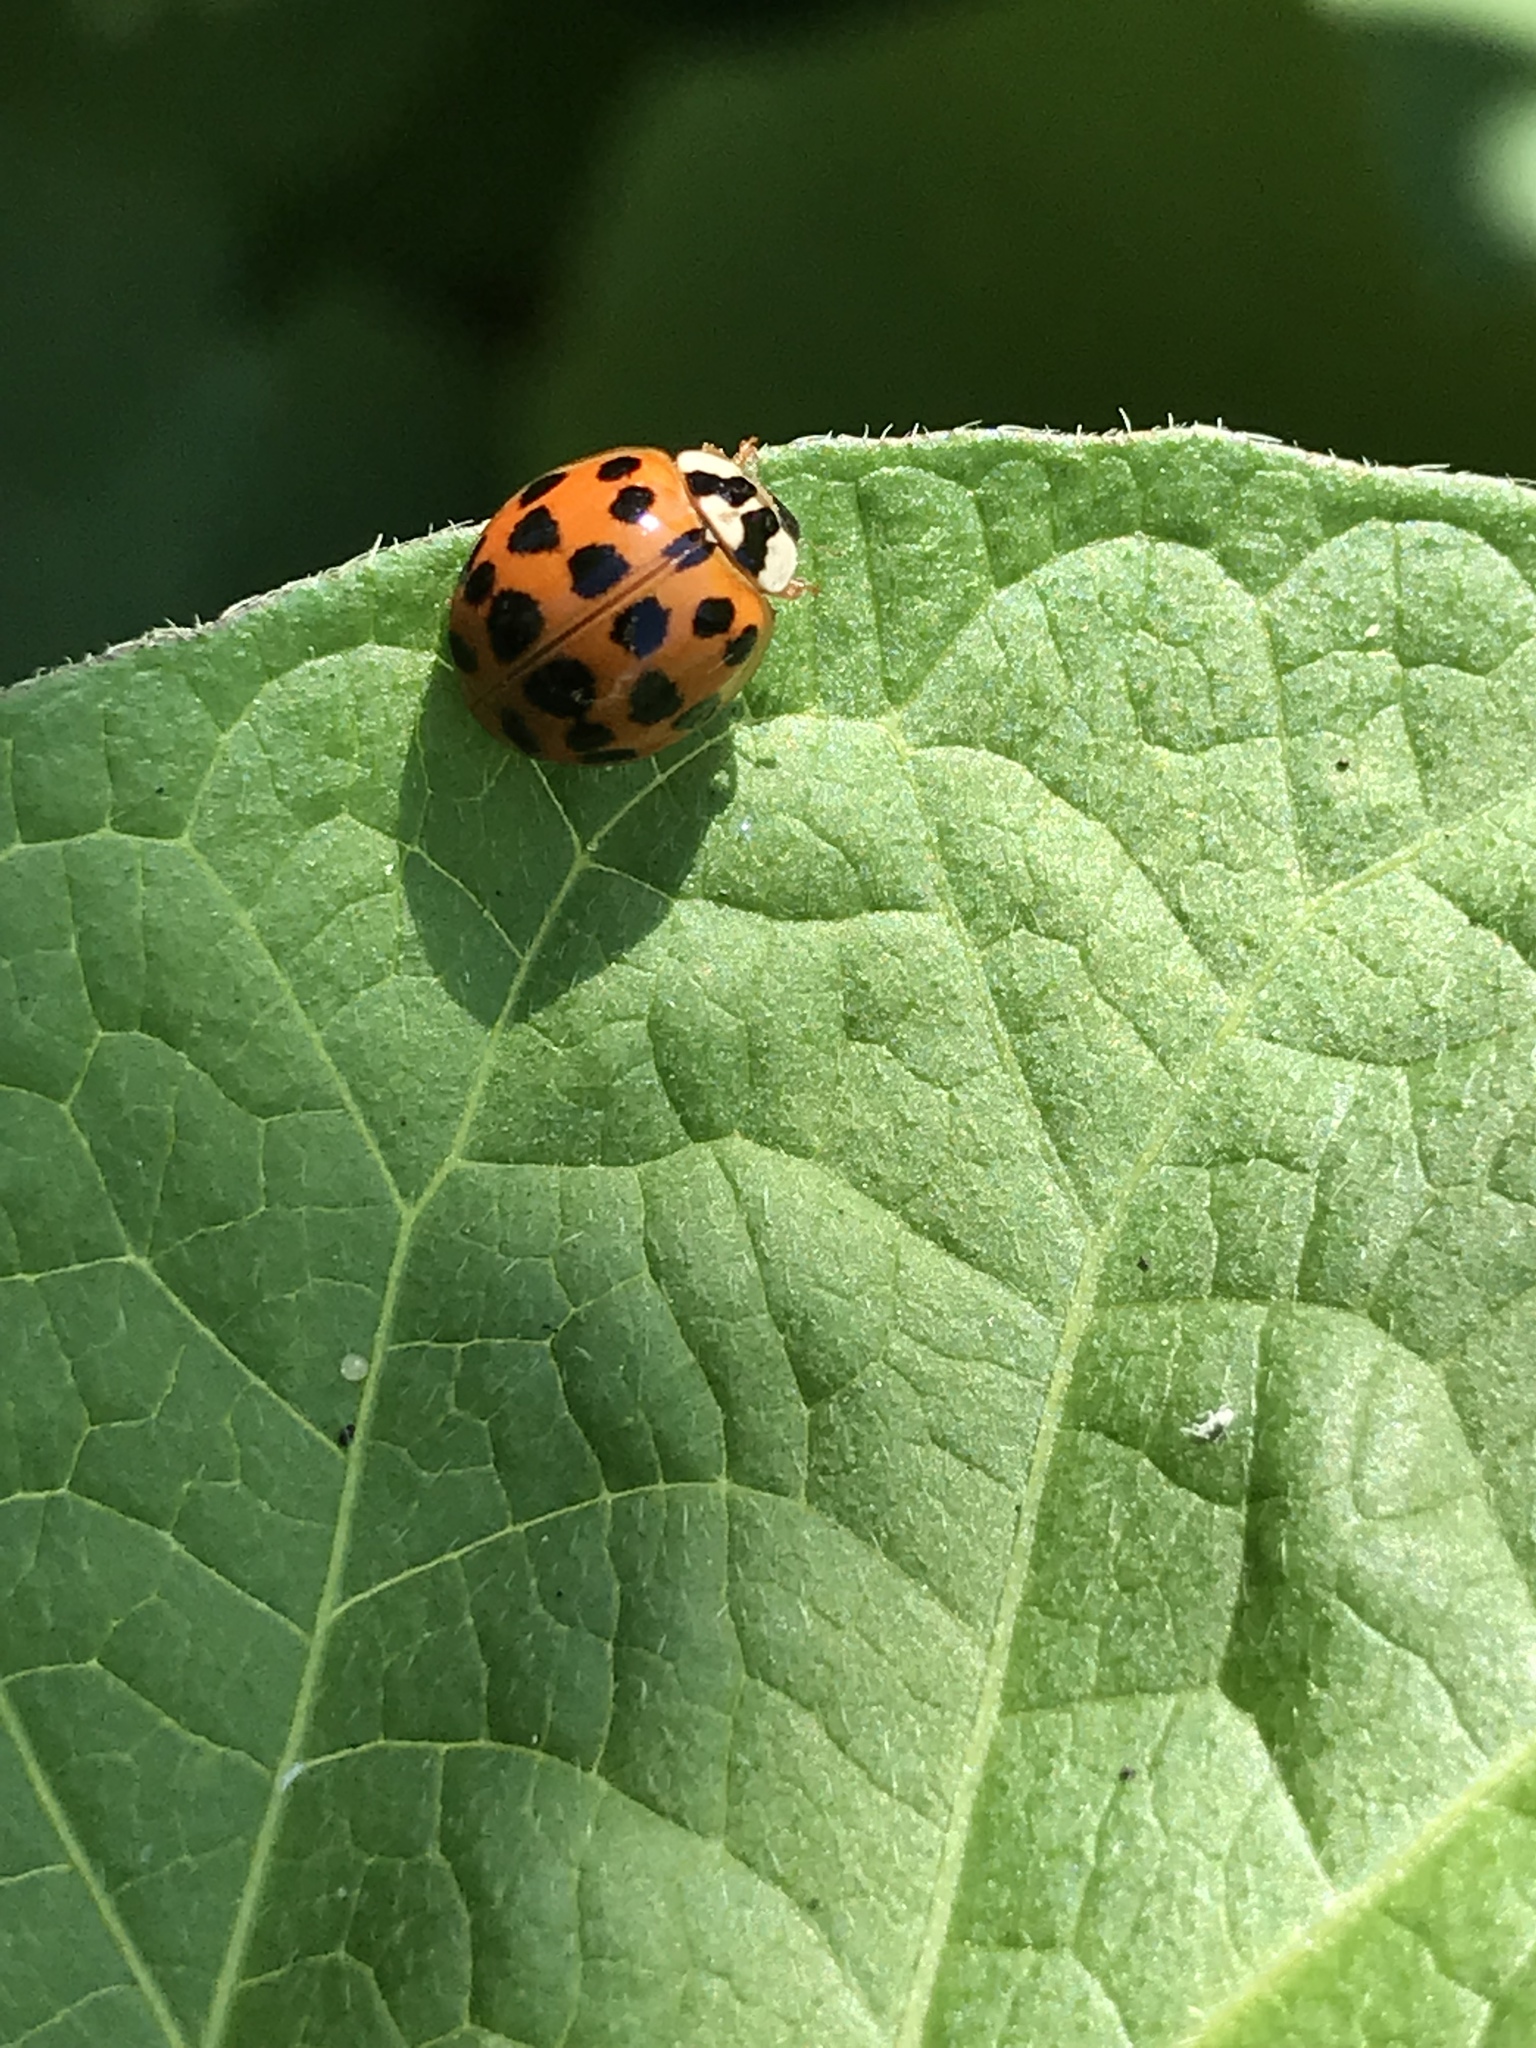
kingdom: Animalia
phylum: Arthropoda
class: Insecta
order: Coleoptera
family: Coccinellidae
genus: Harmonia
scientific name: Harmonia axyridis
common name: Harlequin ladybird
